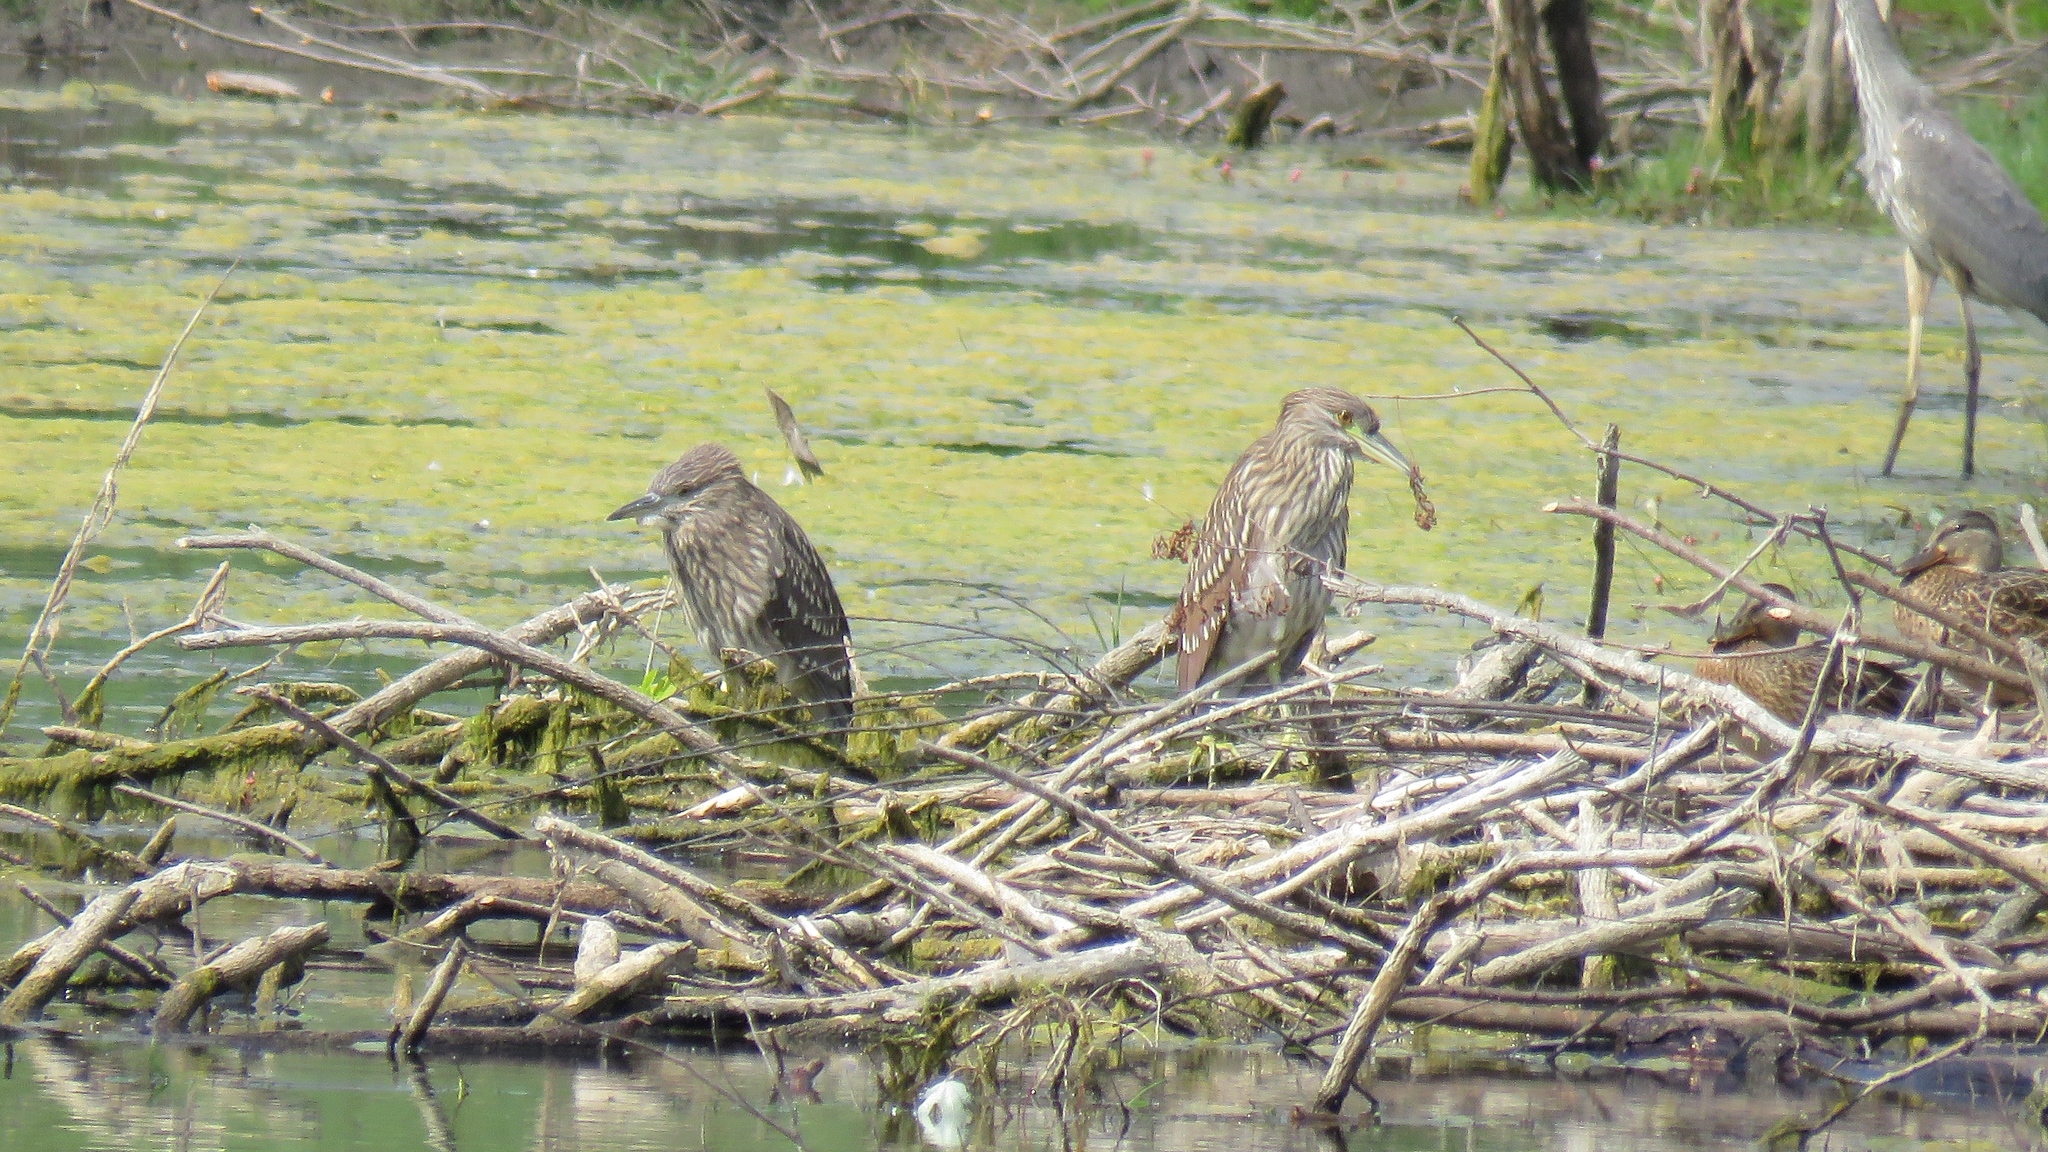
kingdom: Animalia
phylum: Chordata
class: Aves
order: Pelecaniformes
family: Ardeidae
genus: Nycticorax
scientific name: Nycticorax nycticorax
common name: Black-crowned night heron
